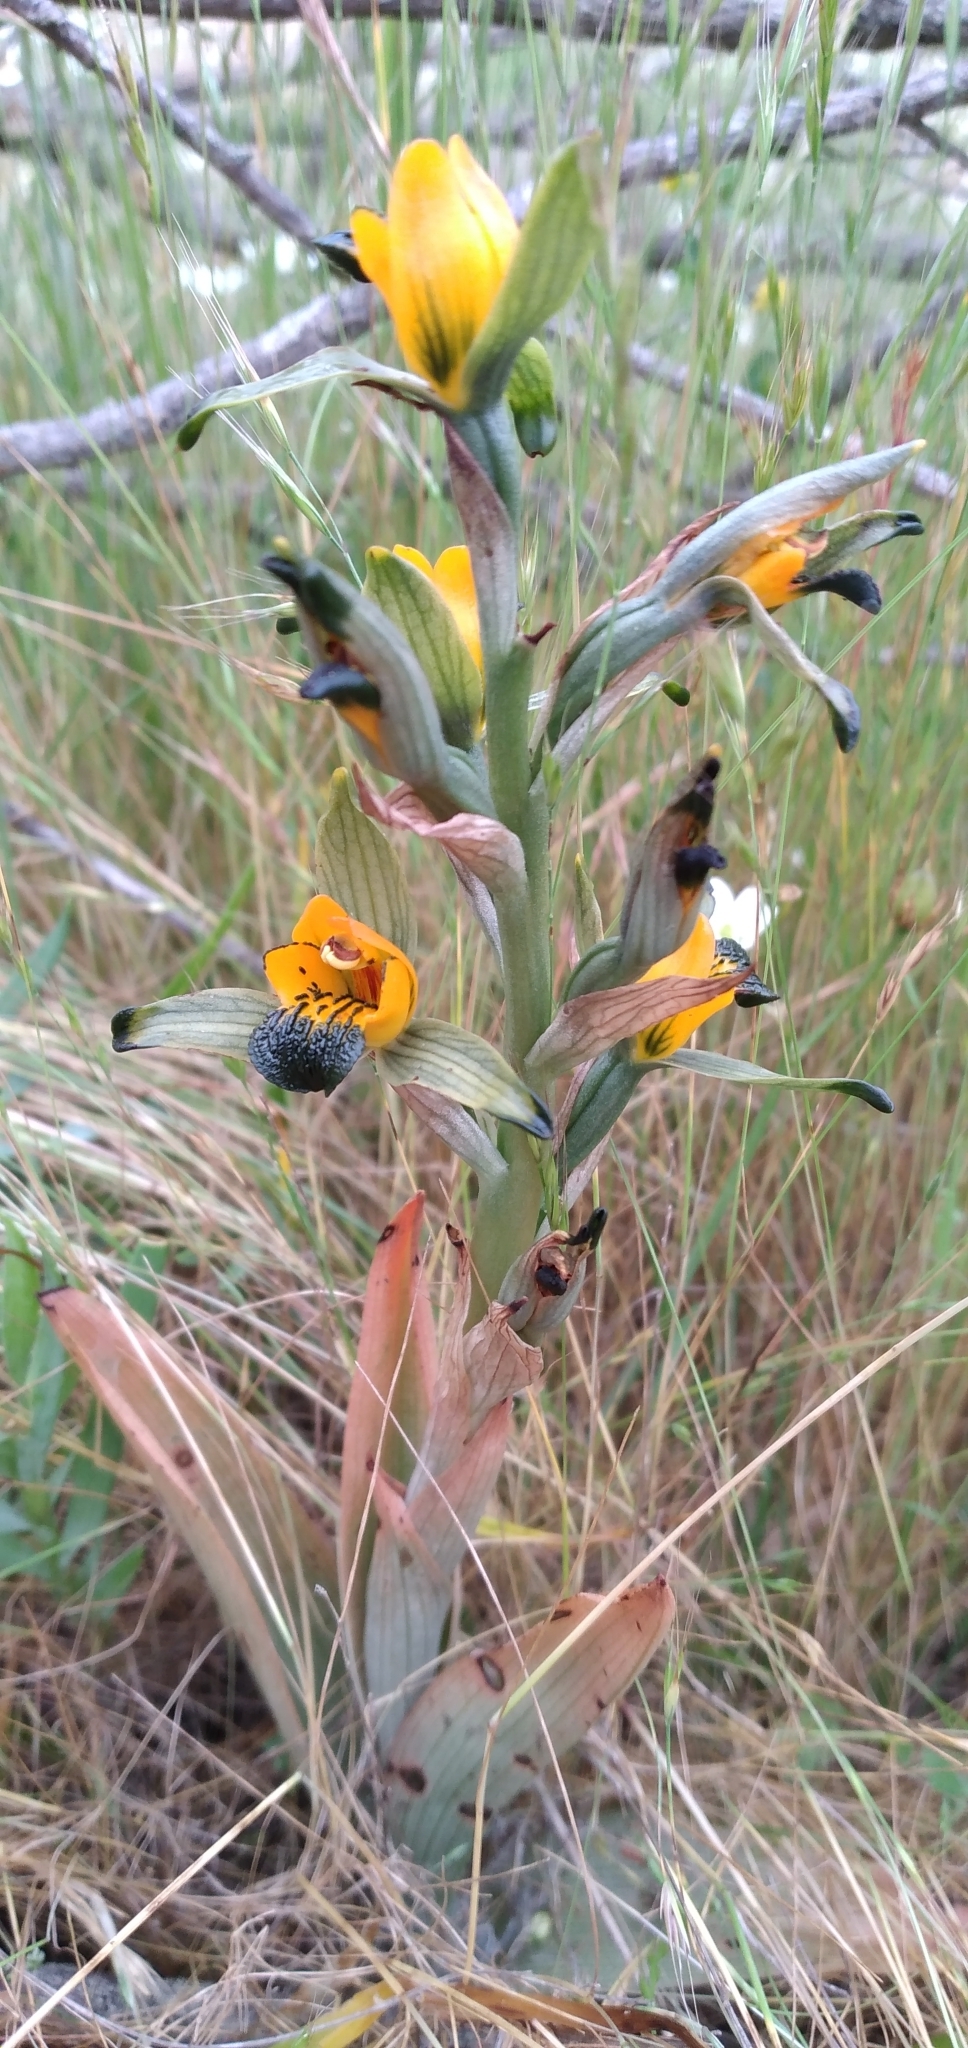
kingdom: Plantae
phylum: Tracheophyta
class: Liliopsida
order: Asparagales
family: Orchidaceae
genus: Chloraea
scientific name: Chloraea disoides
